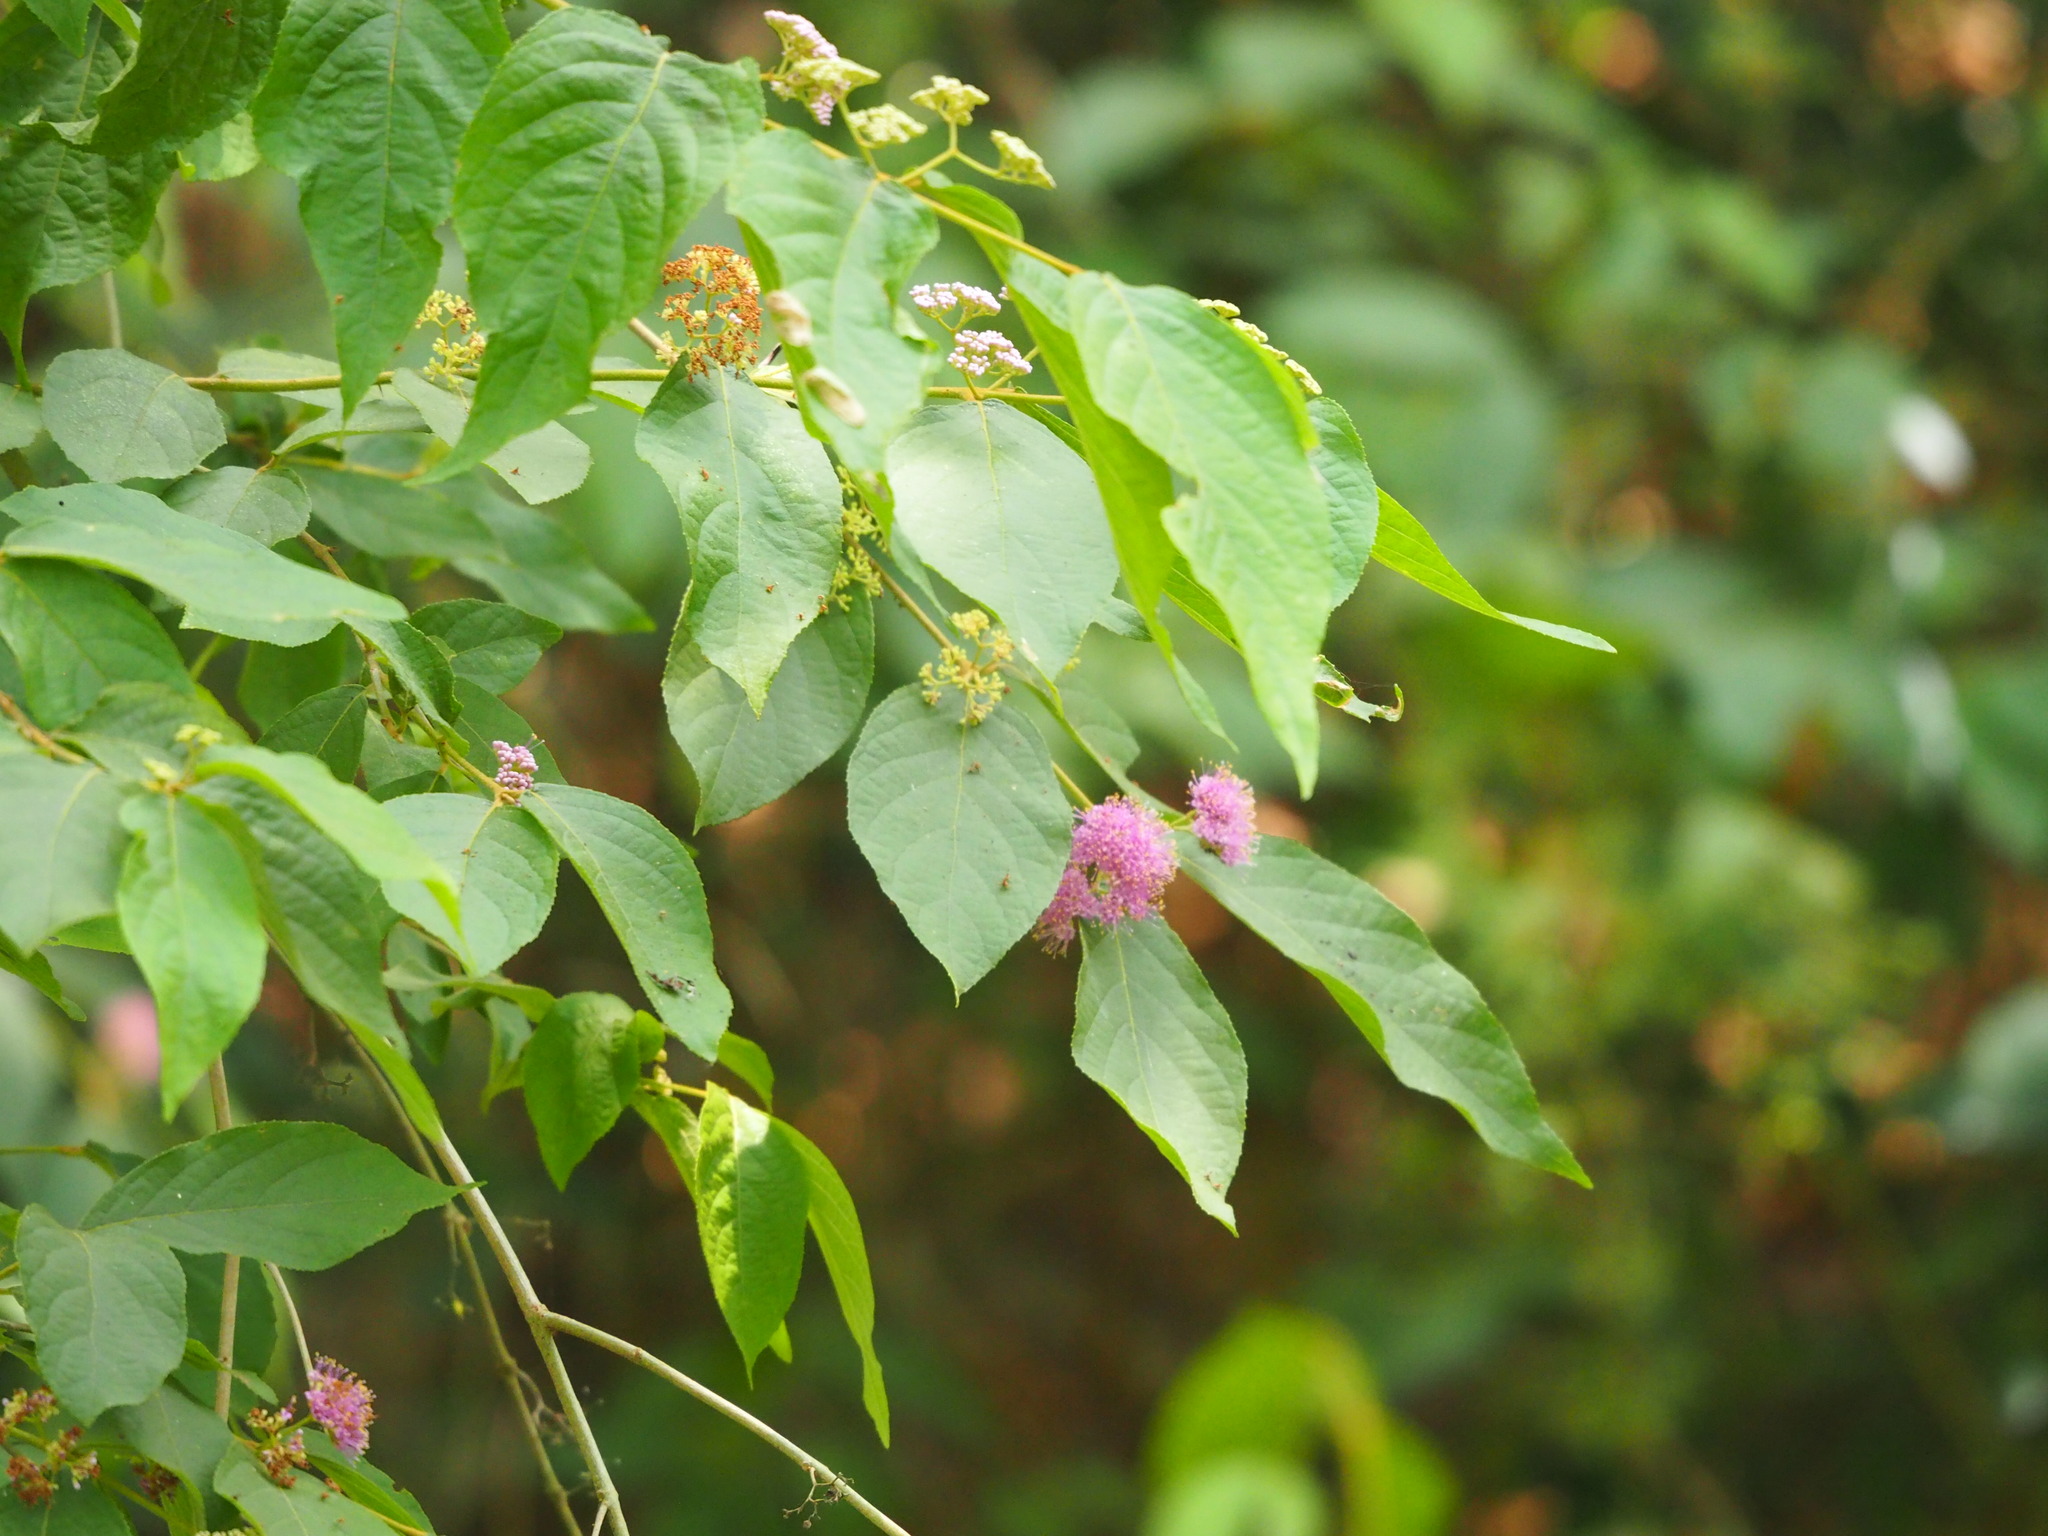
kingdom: Plantae
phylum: Tracheophyta
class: Magnoliopsida
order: Lamiales
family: Lamiaceae
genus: Callicarpa
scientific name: Callicarpa pedunculata
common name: Velvetleaf
